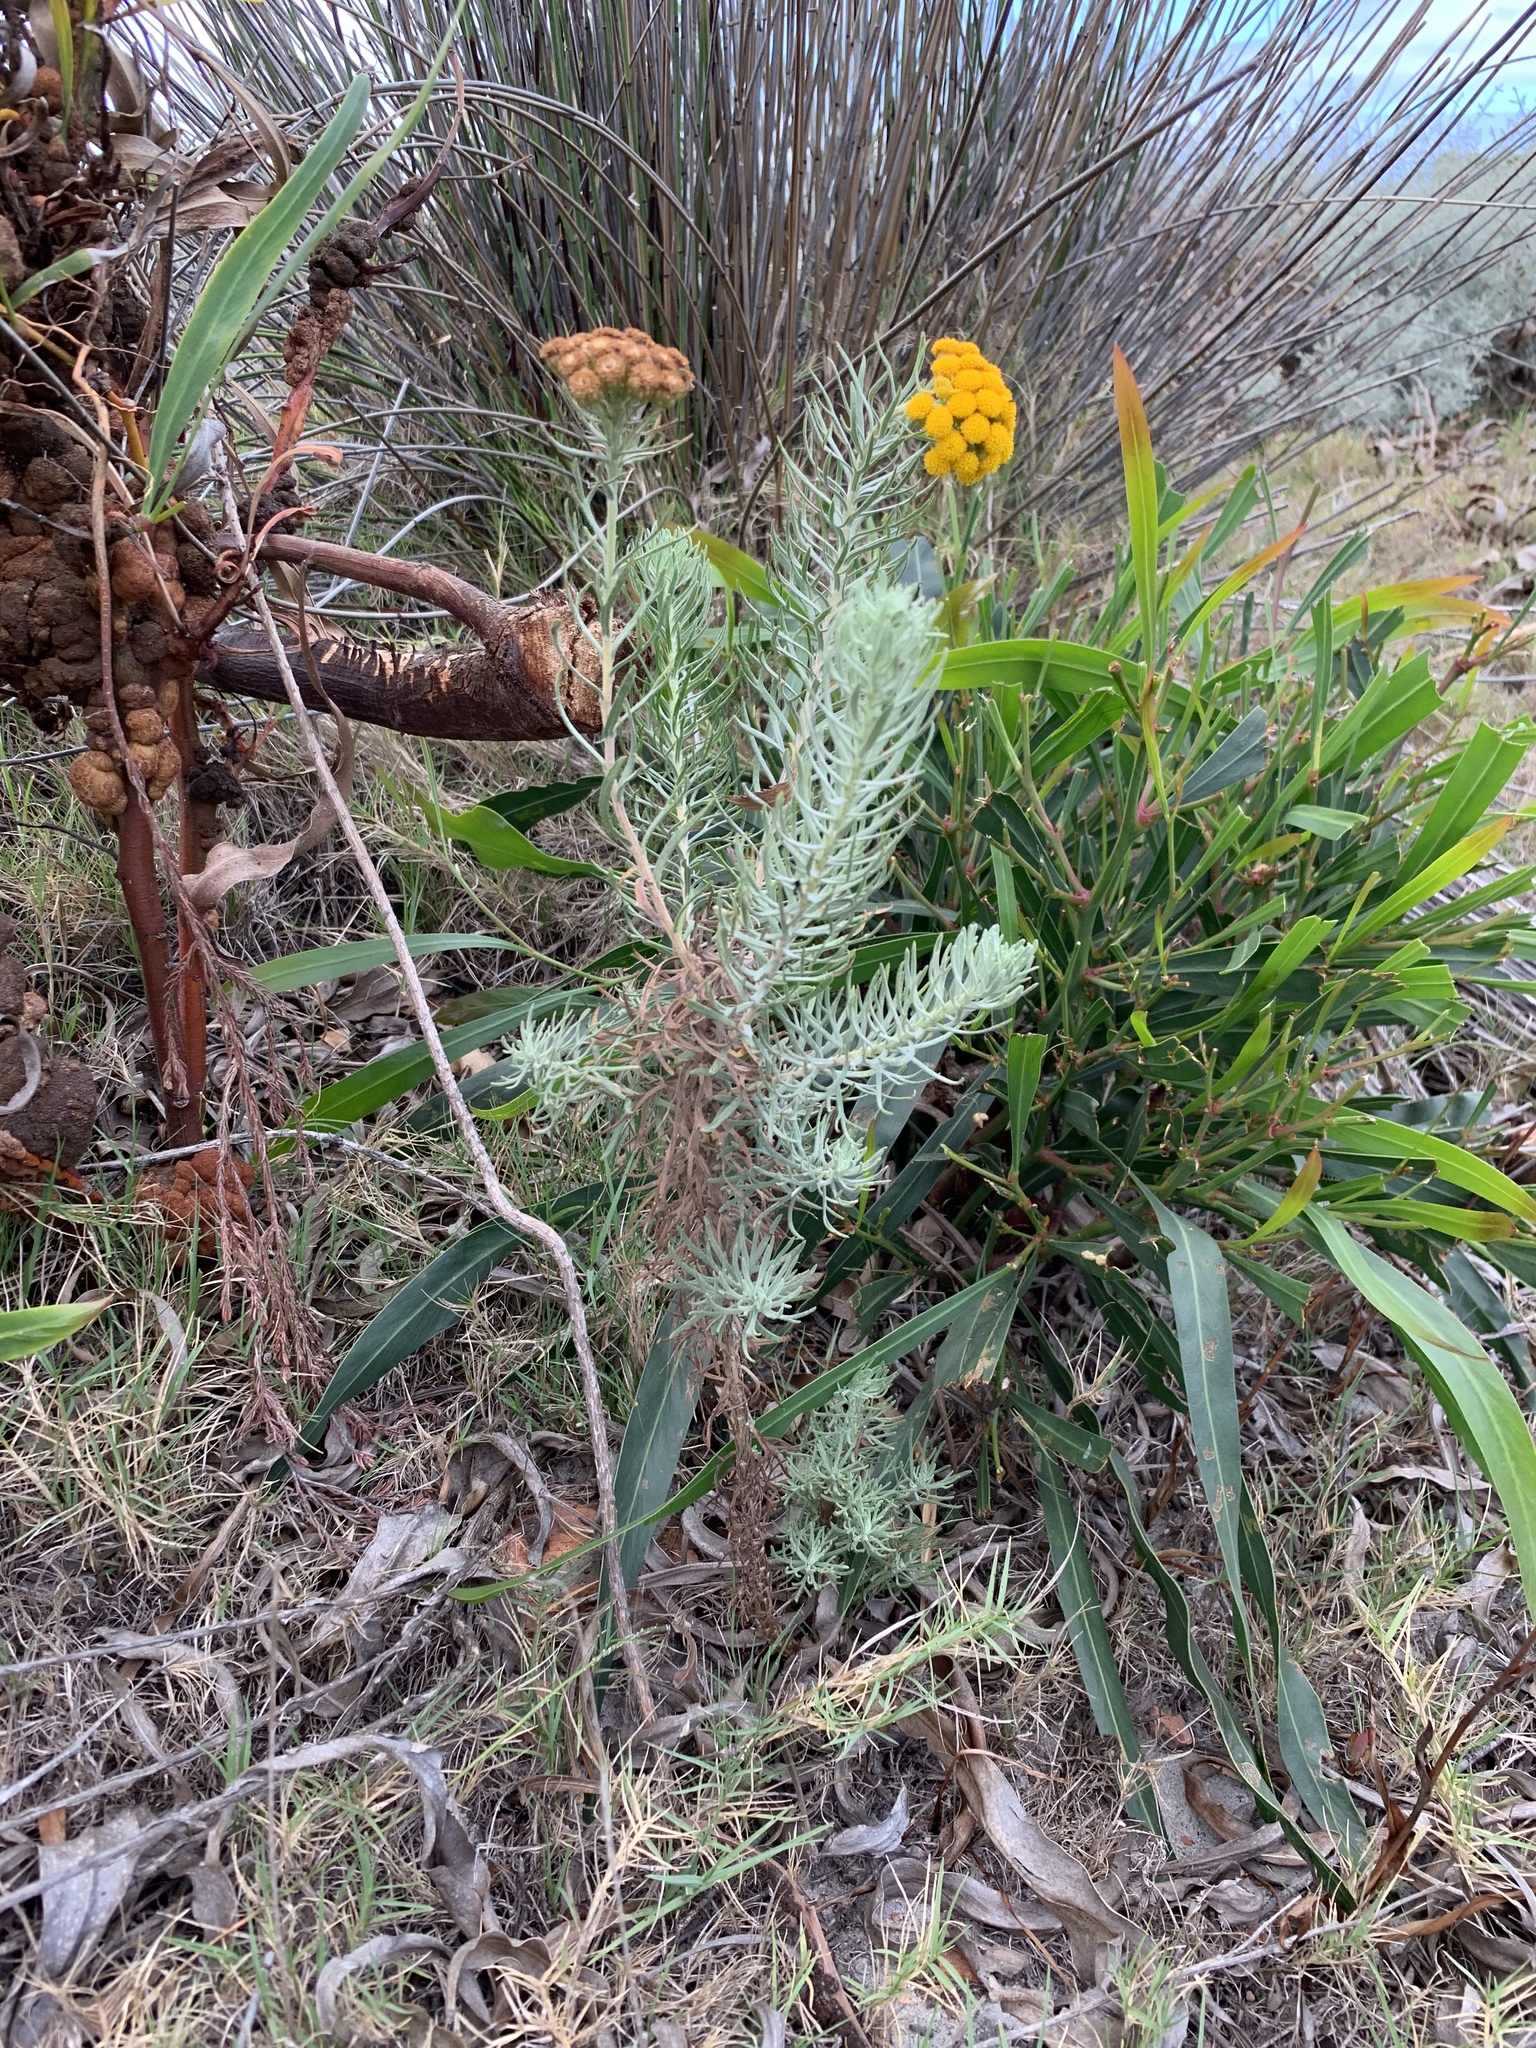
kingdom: Plantae
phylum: Tracheophyta
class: Magnoliopsida
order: Asterales
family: Asteraceae
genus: Athanasia
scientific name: Athanasia crithmifolia
